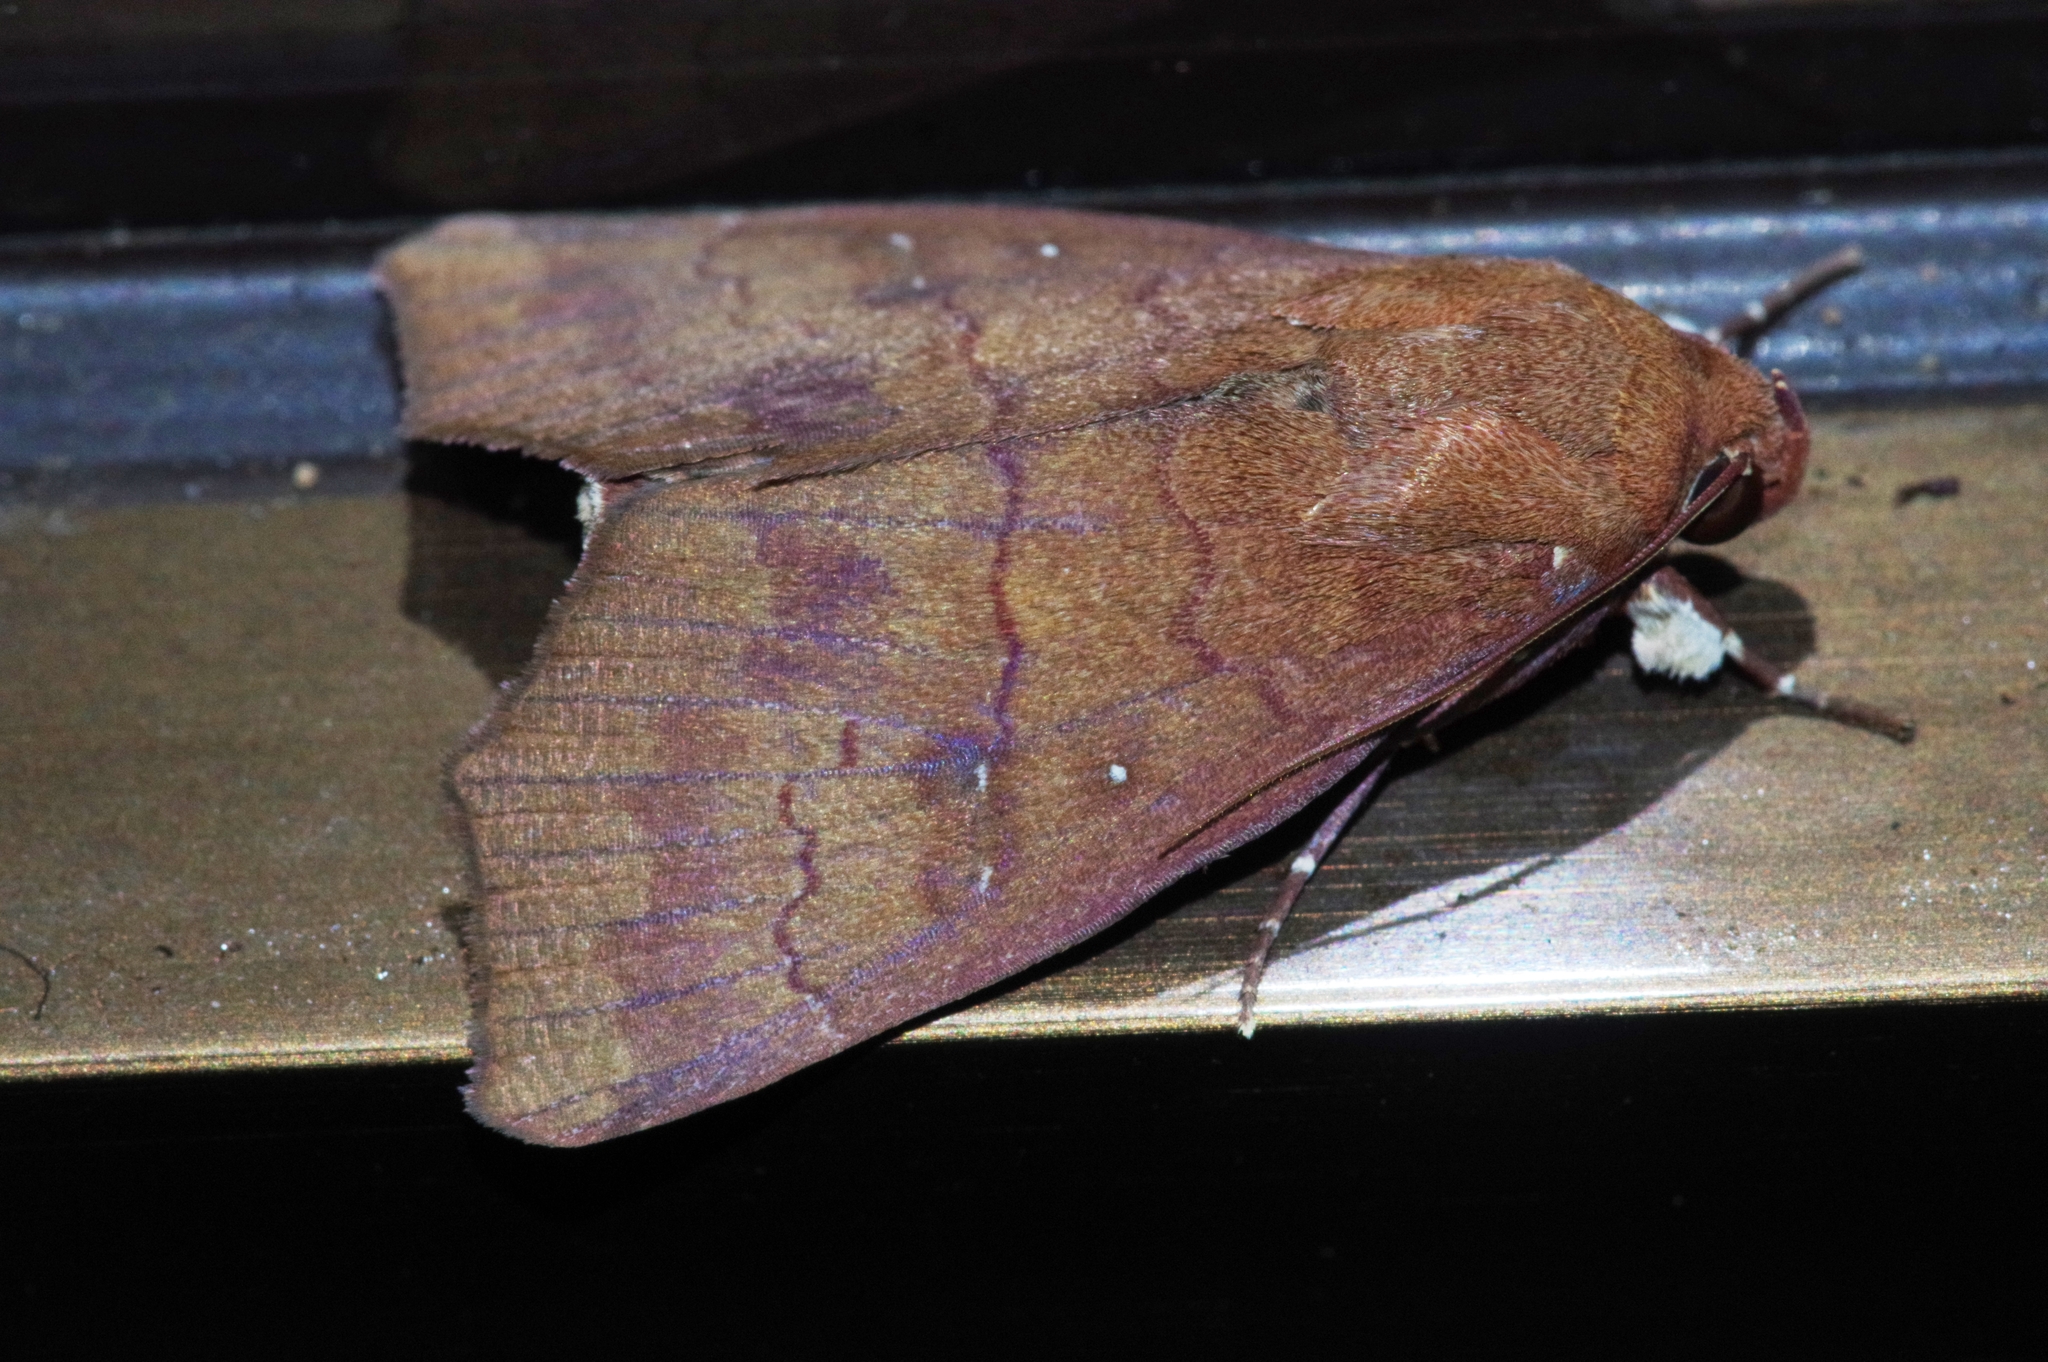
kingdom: Animalia
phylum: Arthropoda
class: Insecta
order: Lepidoptera
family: Erebidae
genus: Rusicada
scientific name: Rusicada albitibia
